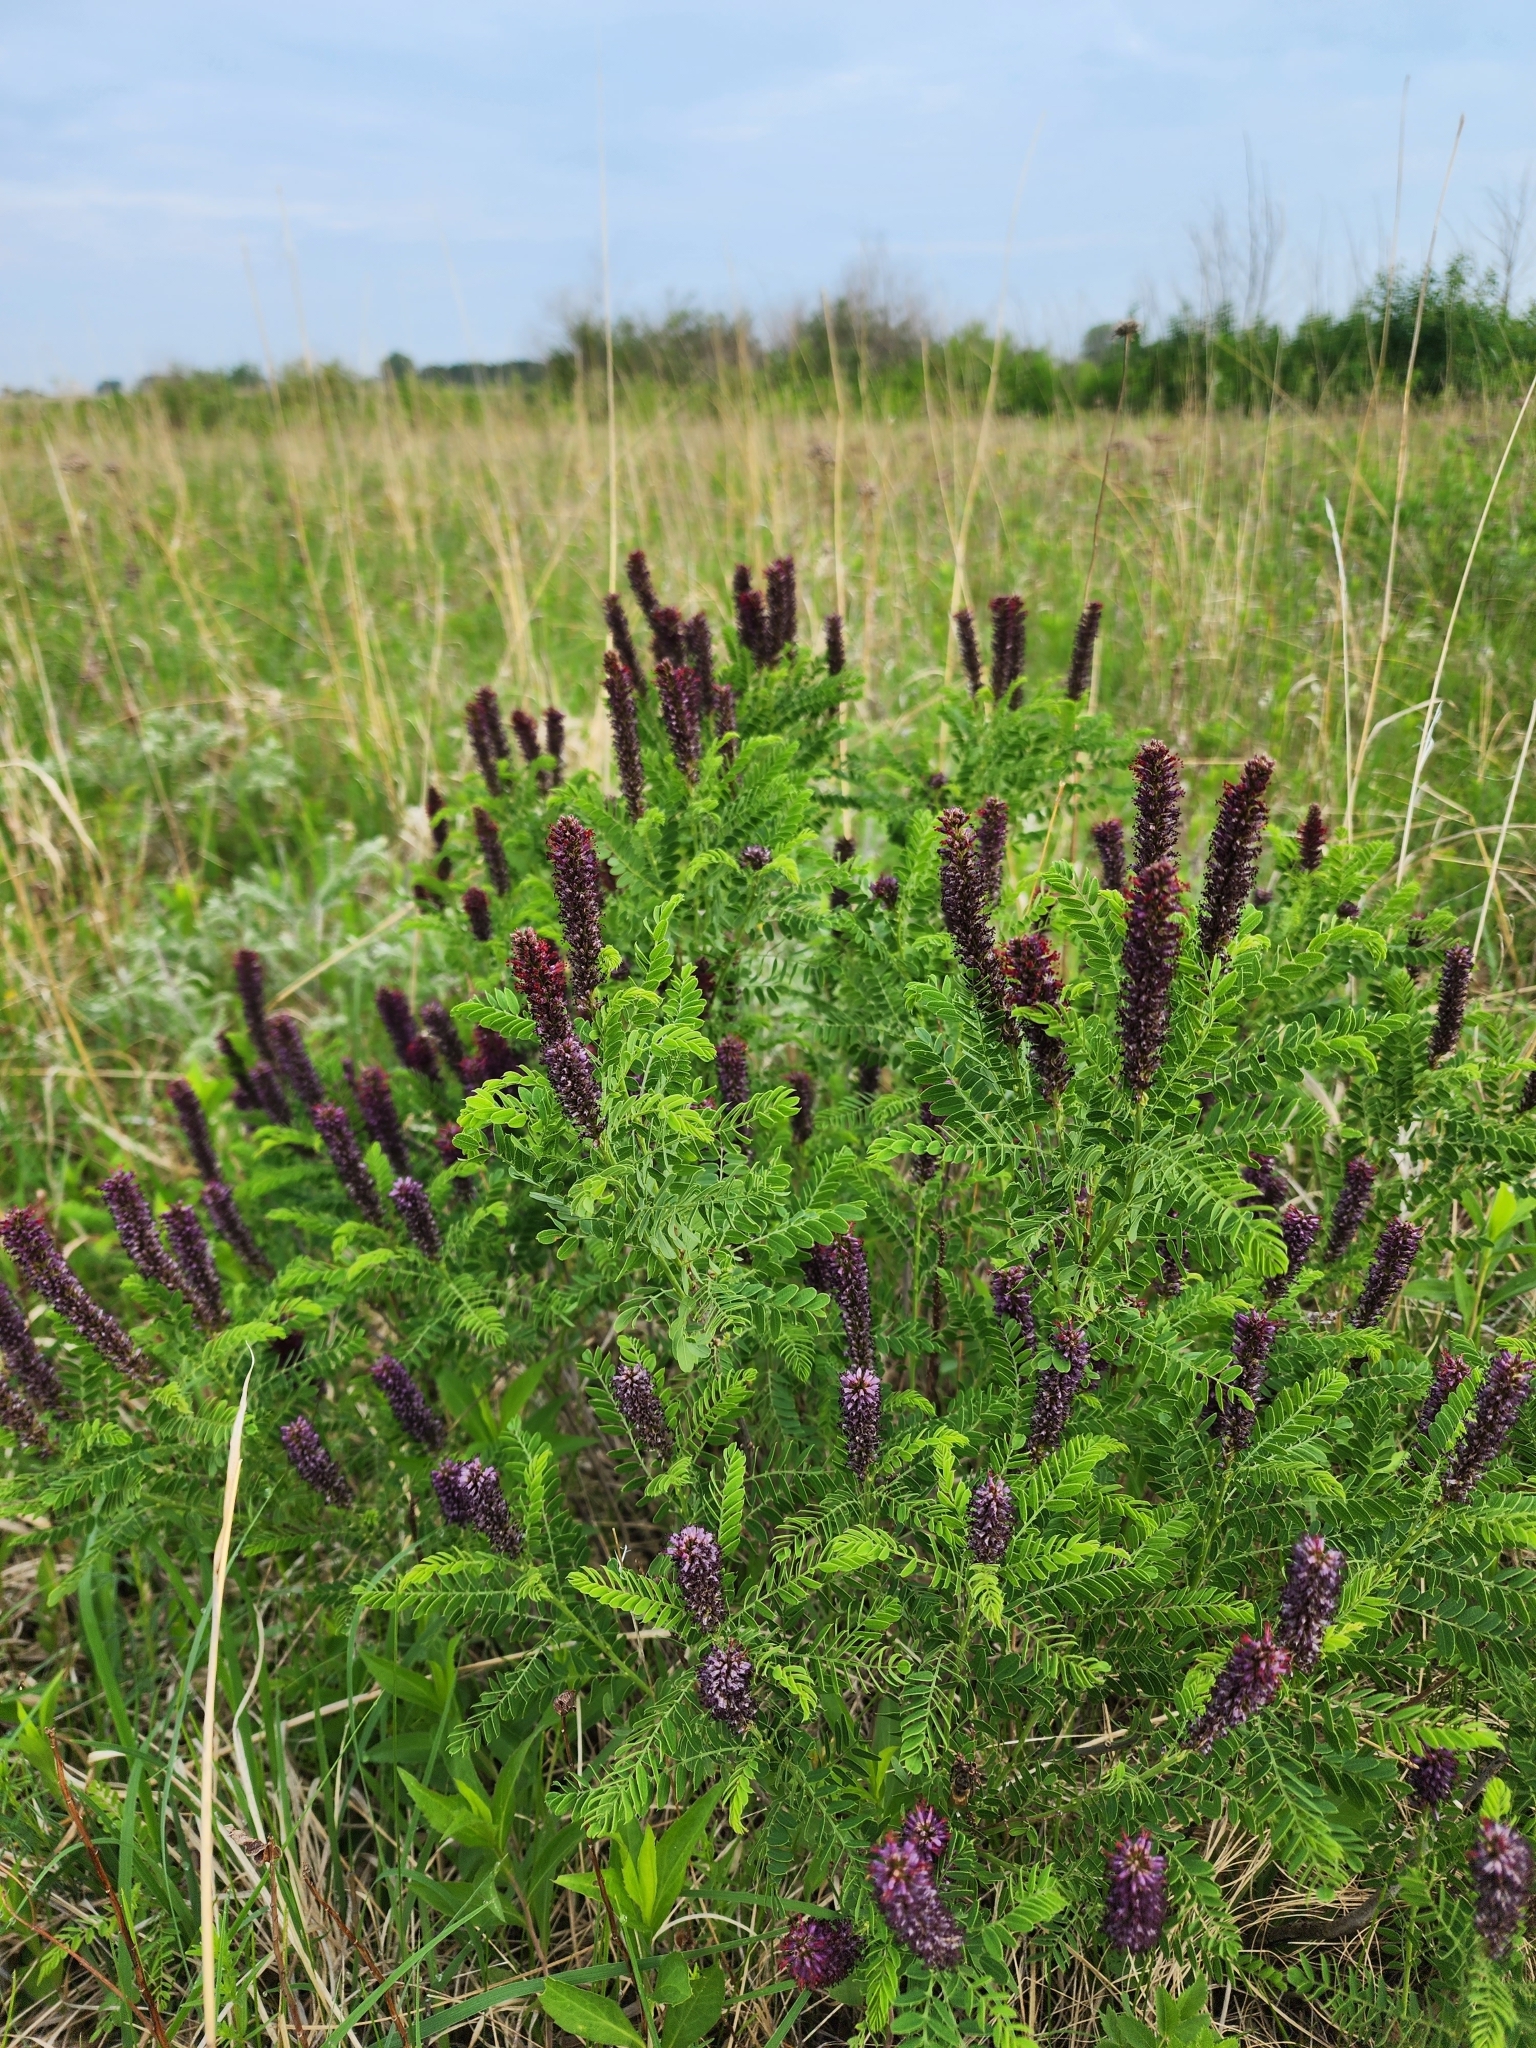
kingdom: Plantae
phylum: Tracheophyta
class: Magnoliopsida
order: Fabales
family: Fabaceae
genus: Amorpha
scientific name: Amorpha nana
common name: Fragrant false indigo
